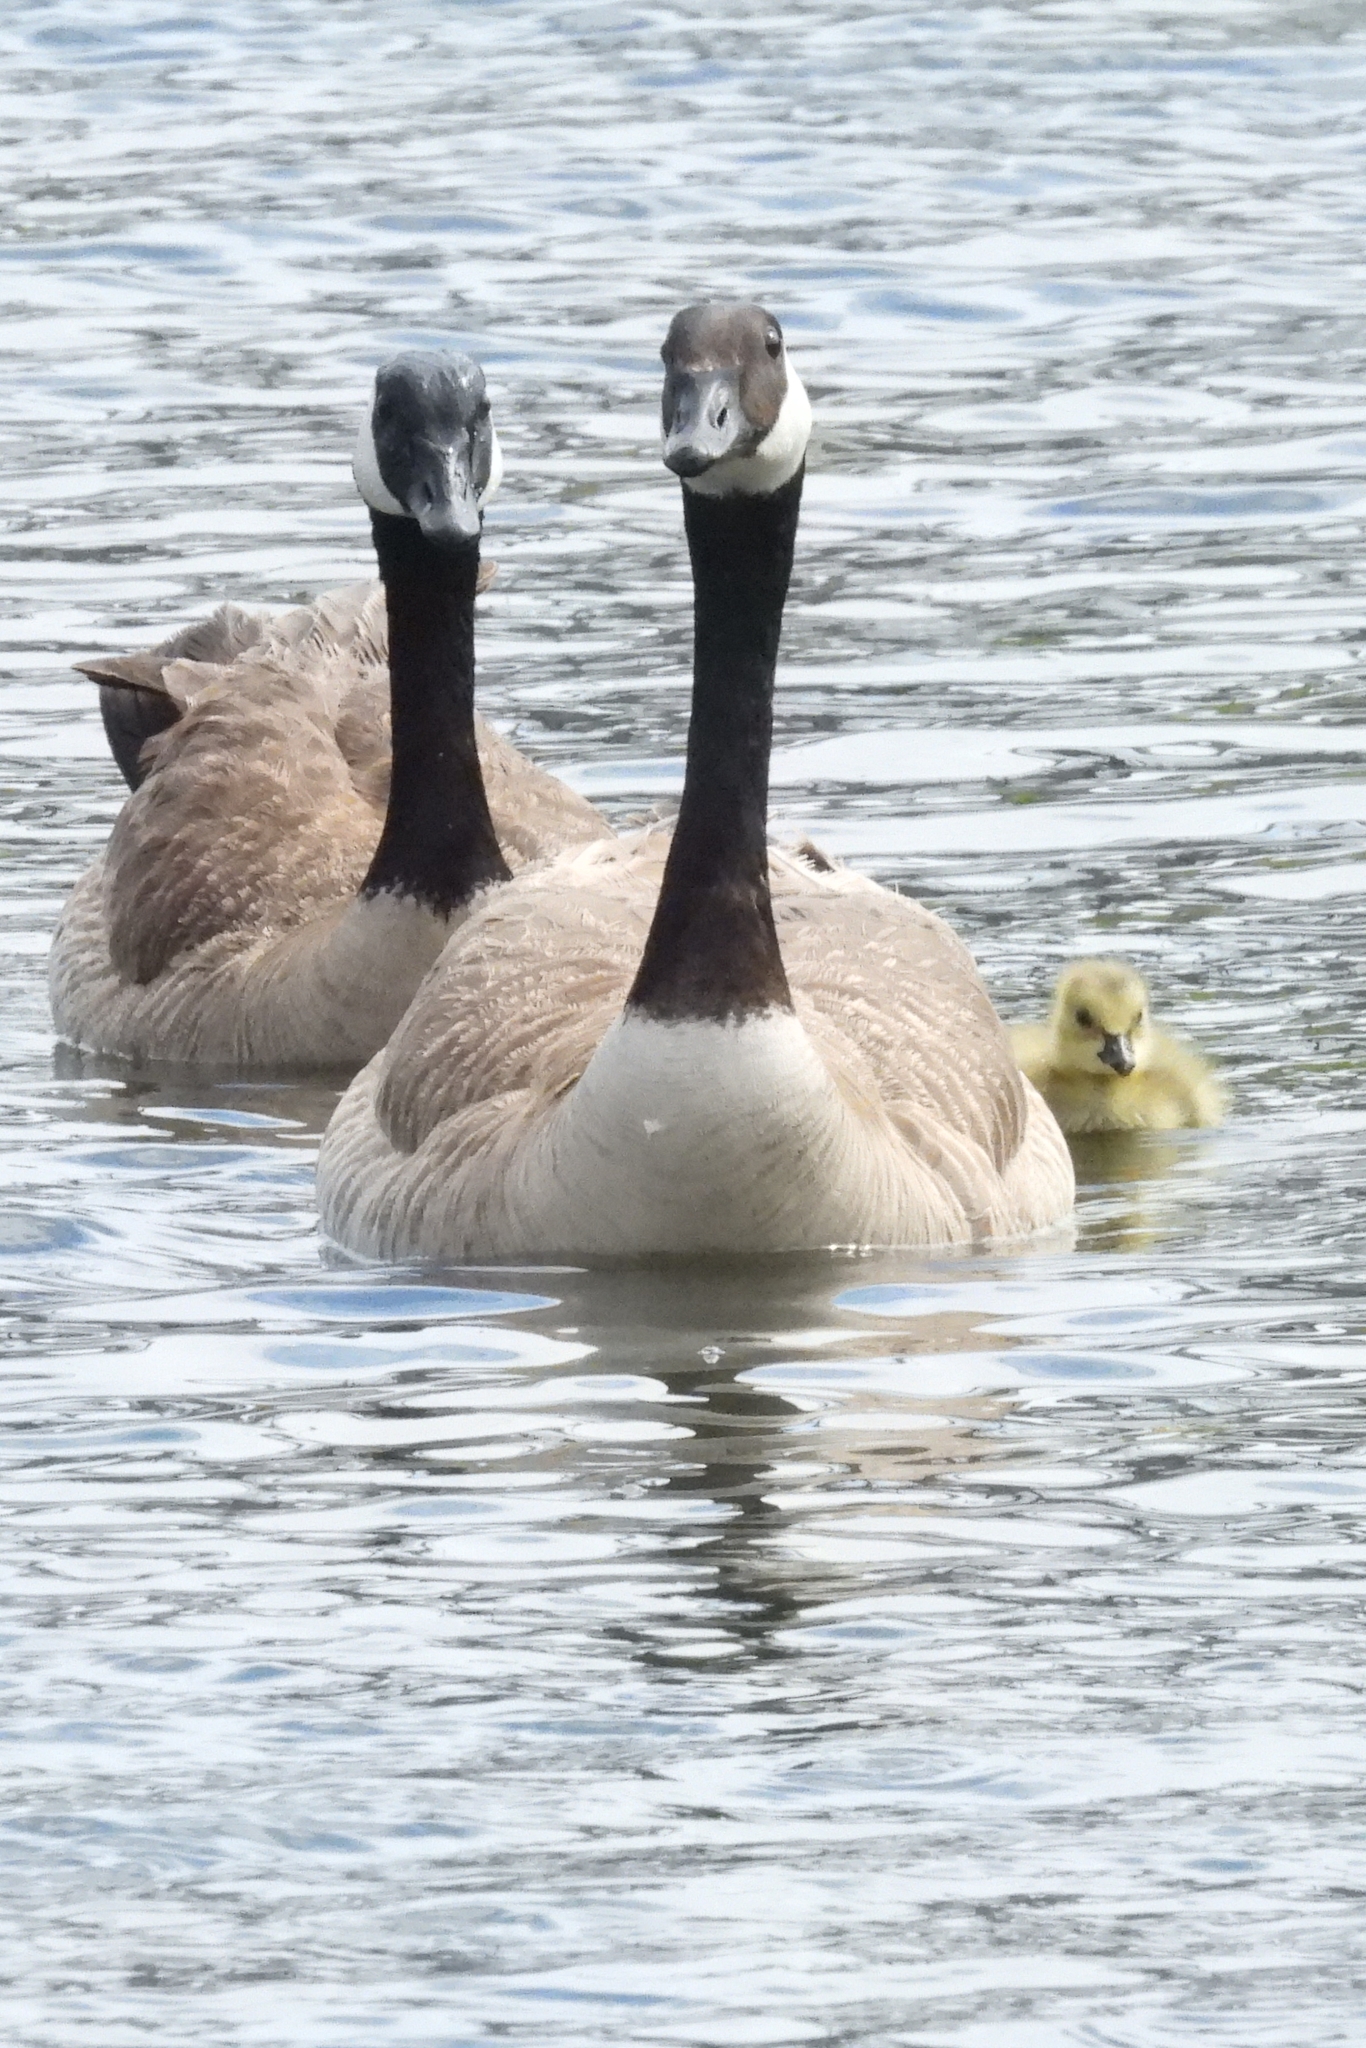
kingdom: Animalia
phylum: Chordata
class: Aves
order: Anseriformes
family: Anatidae
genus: Branta
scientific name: Branta canadensis
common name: Canada goose
